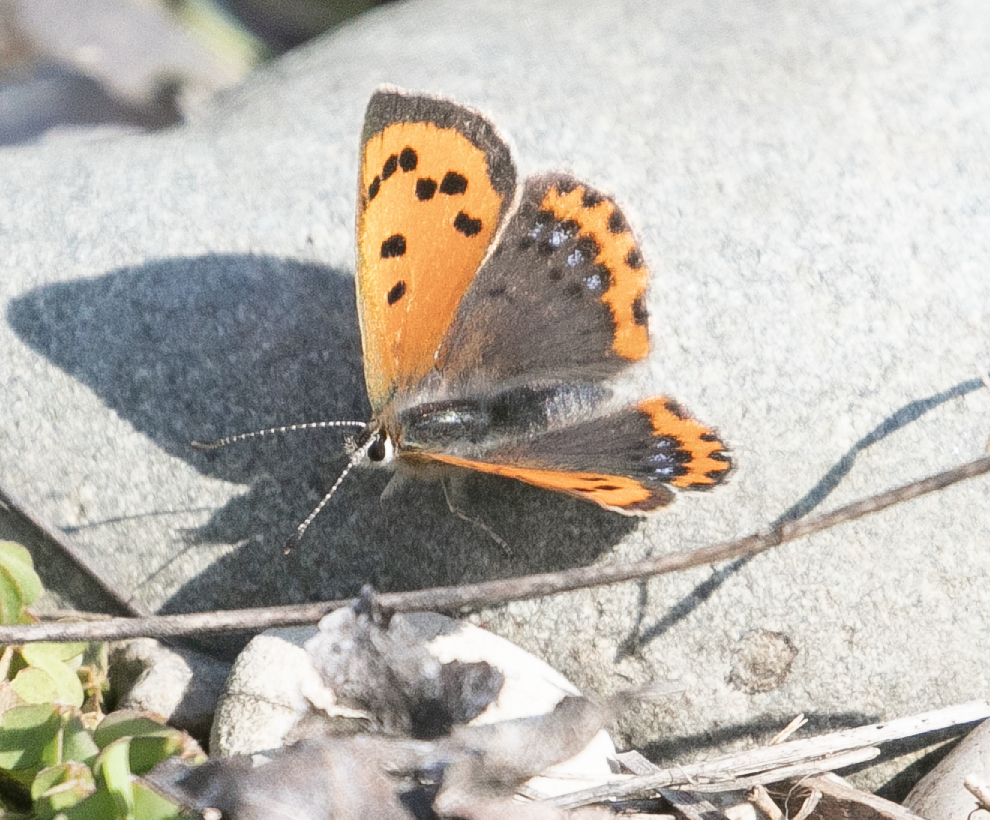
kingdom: Animalia
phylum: Arthropoda
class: Insecta
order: Lepidoptera
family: Lycaenidae
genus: Lycaena
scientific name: Lycaena phlaeas
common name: Small copper
